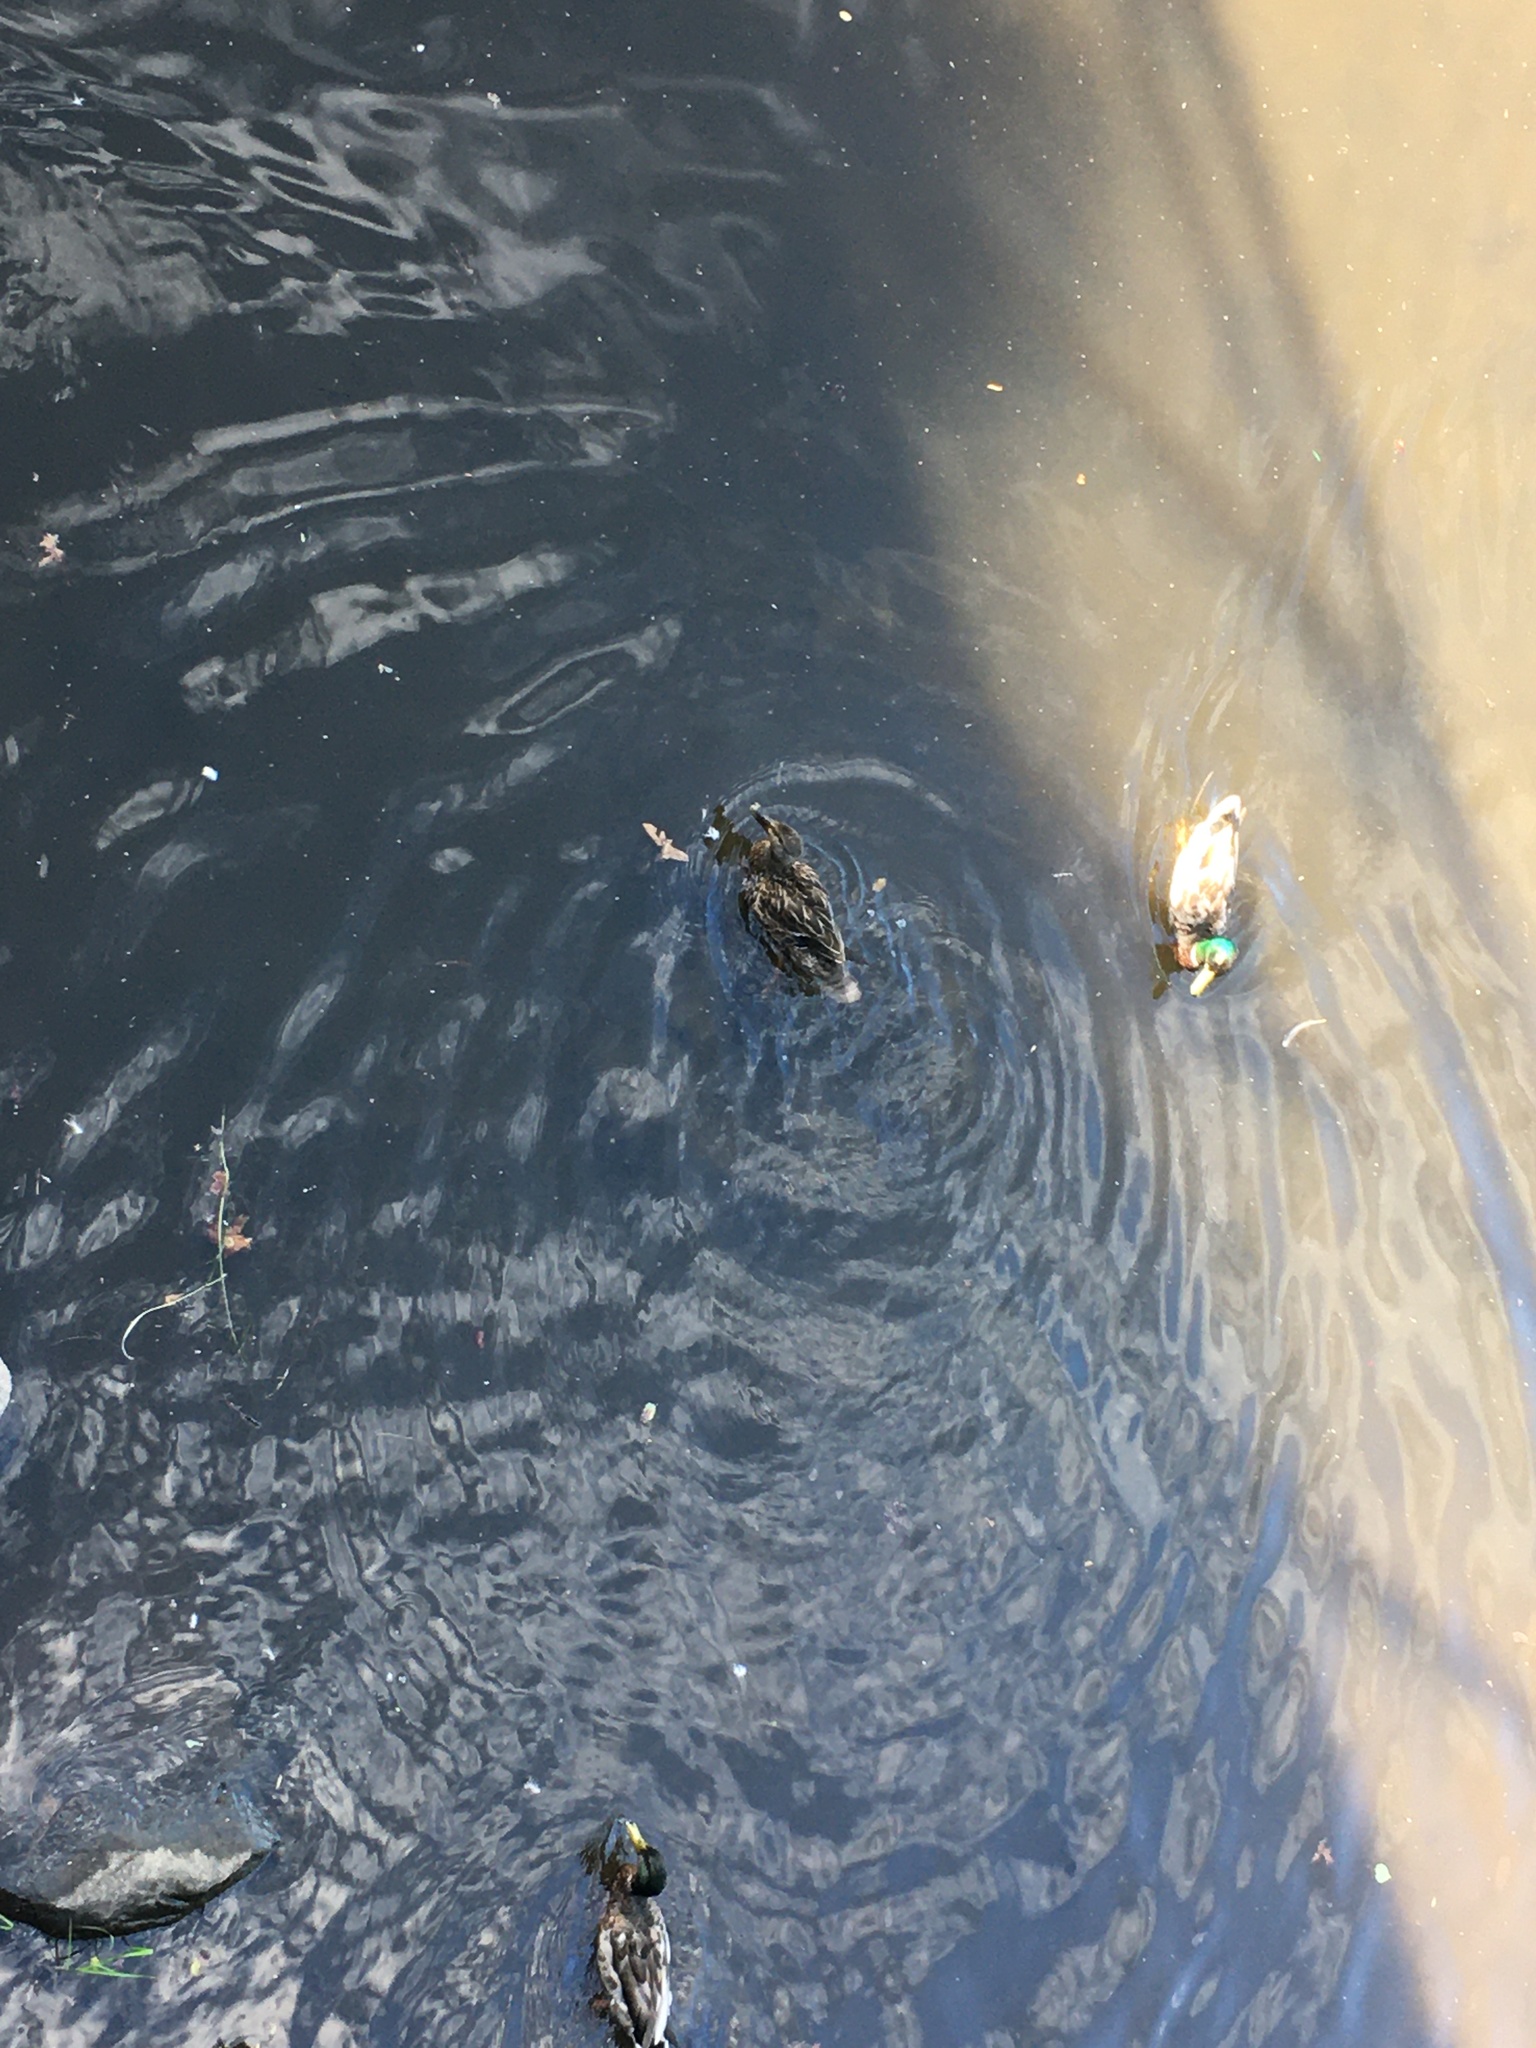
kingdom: Animalia
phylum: Chordata
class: Aves
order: Anseriformes
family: Anatidae
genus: Anas
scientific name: Anas platyrhynchos
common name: Mallard
